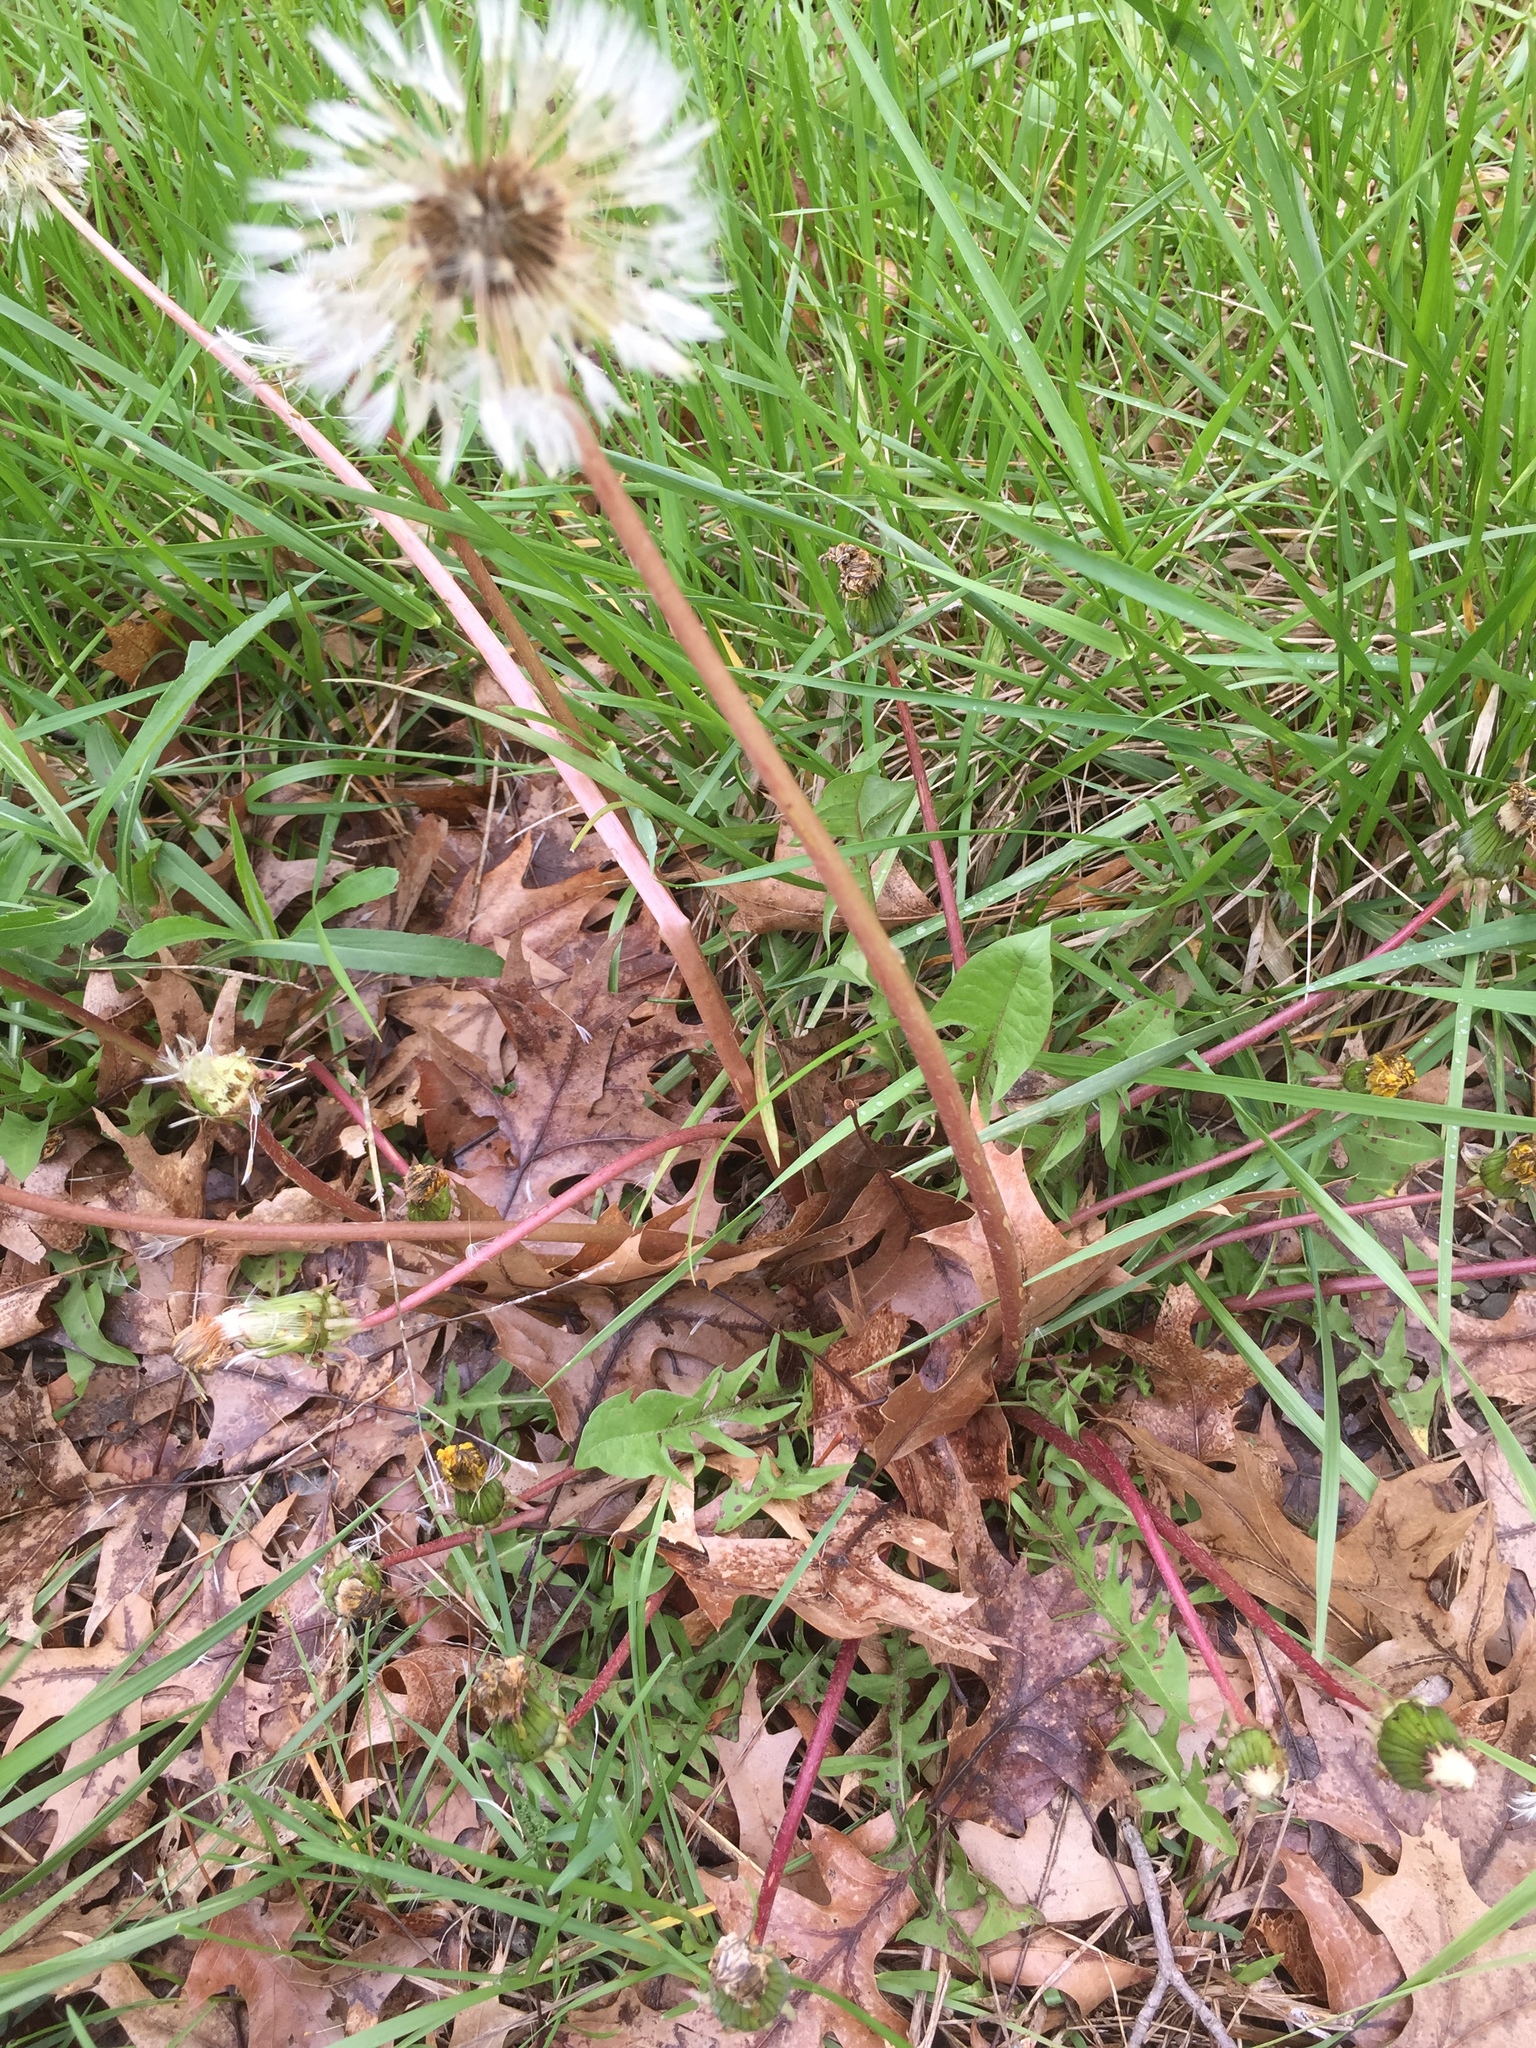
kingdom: Plantae
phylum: Tracheophyta
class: Magnoliopsida
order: Asterales
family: Asteraceae
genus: Taraxacum
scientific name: Taraxacum officinale
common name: Common dandelion
